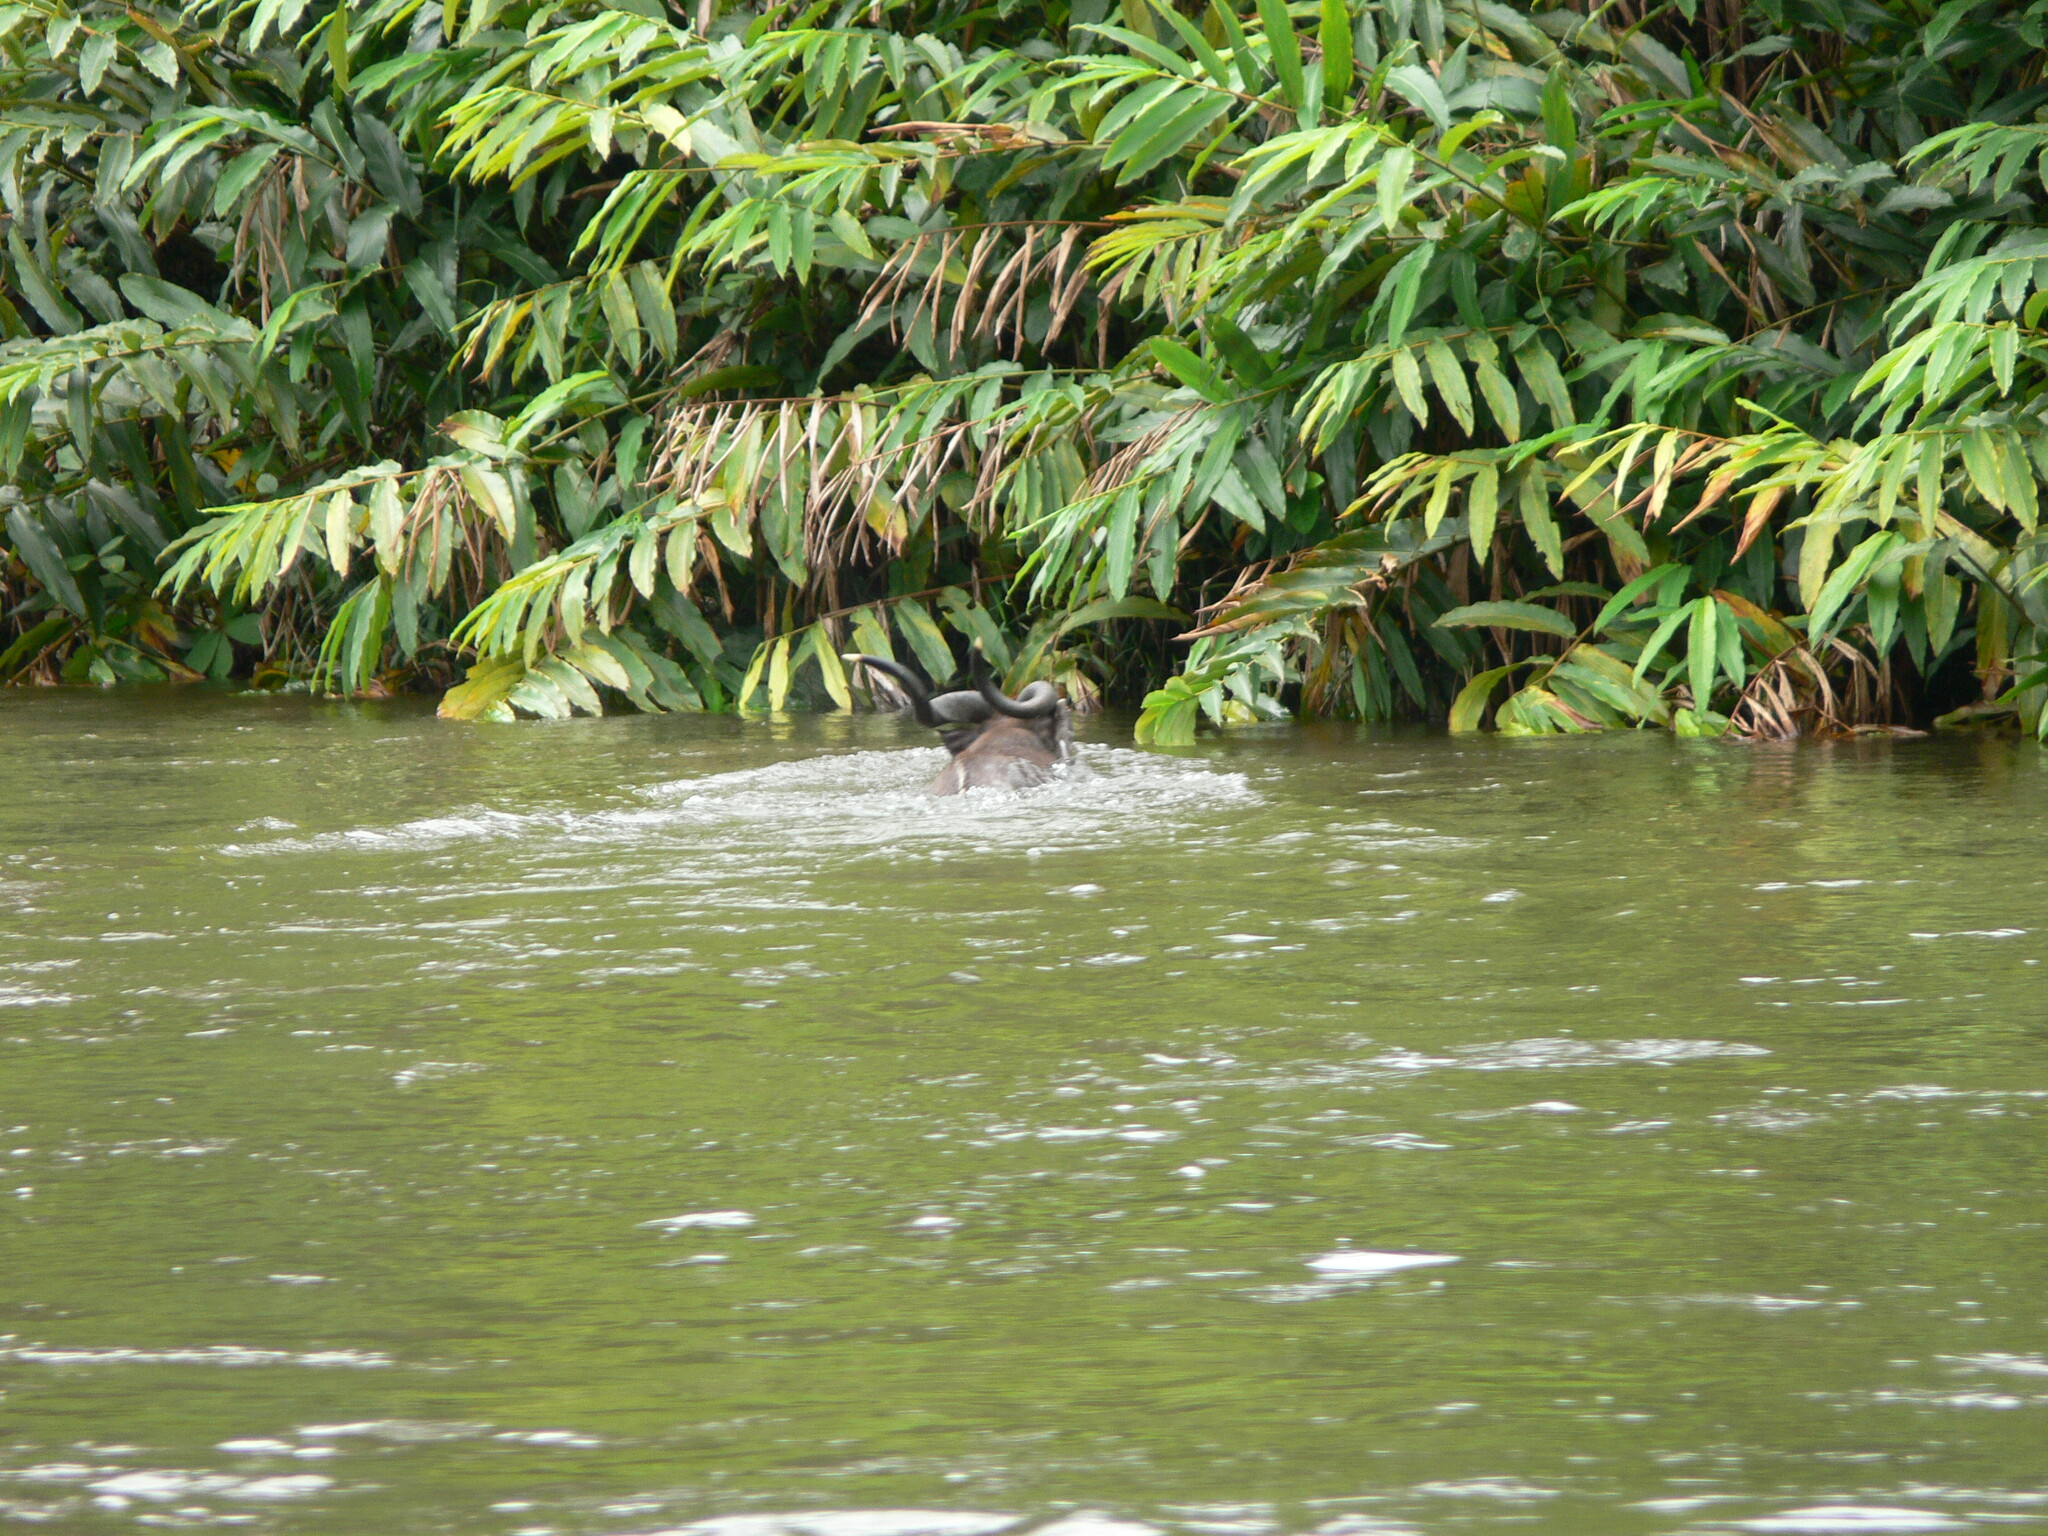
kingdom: Animalia
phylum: Chordata
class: Mammalia
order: Artiodactyla
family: Bovidae
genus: Tragelaphus
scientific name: Tragelaphus spekii
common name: Sitatunga
